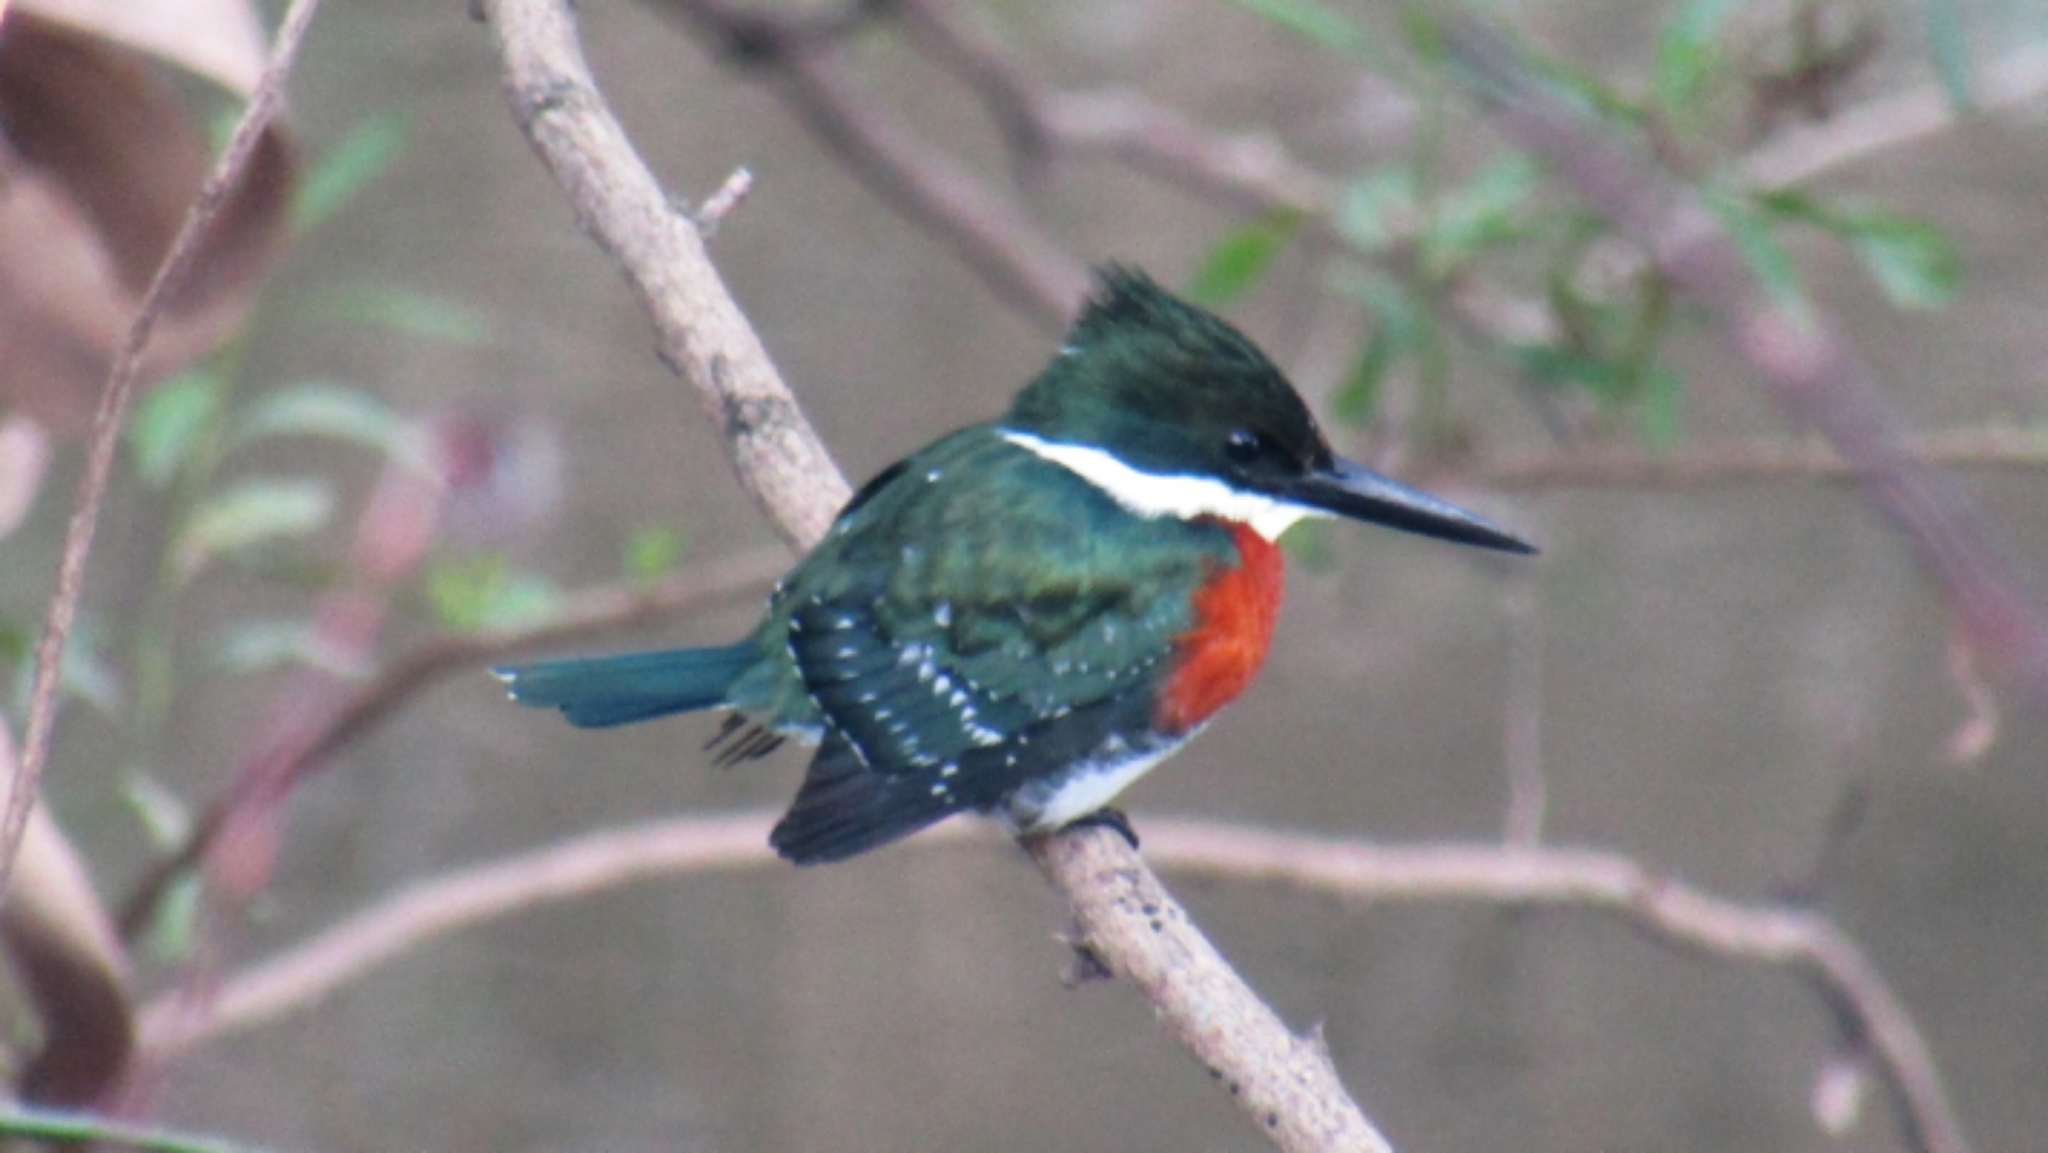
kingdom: Animalia
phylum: Chordata
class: Aves
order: Coraciiformes
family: Alcedinidae
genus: Chloroceryle
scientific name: Chloroceryle americana
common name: Green kingfisher
